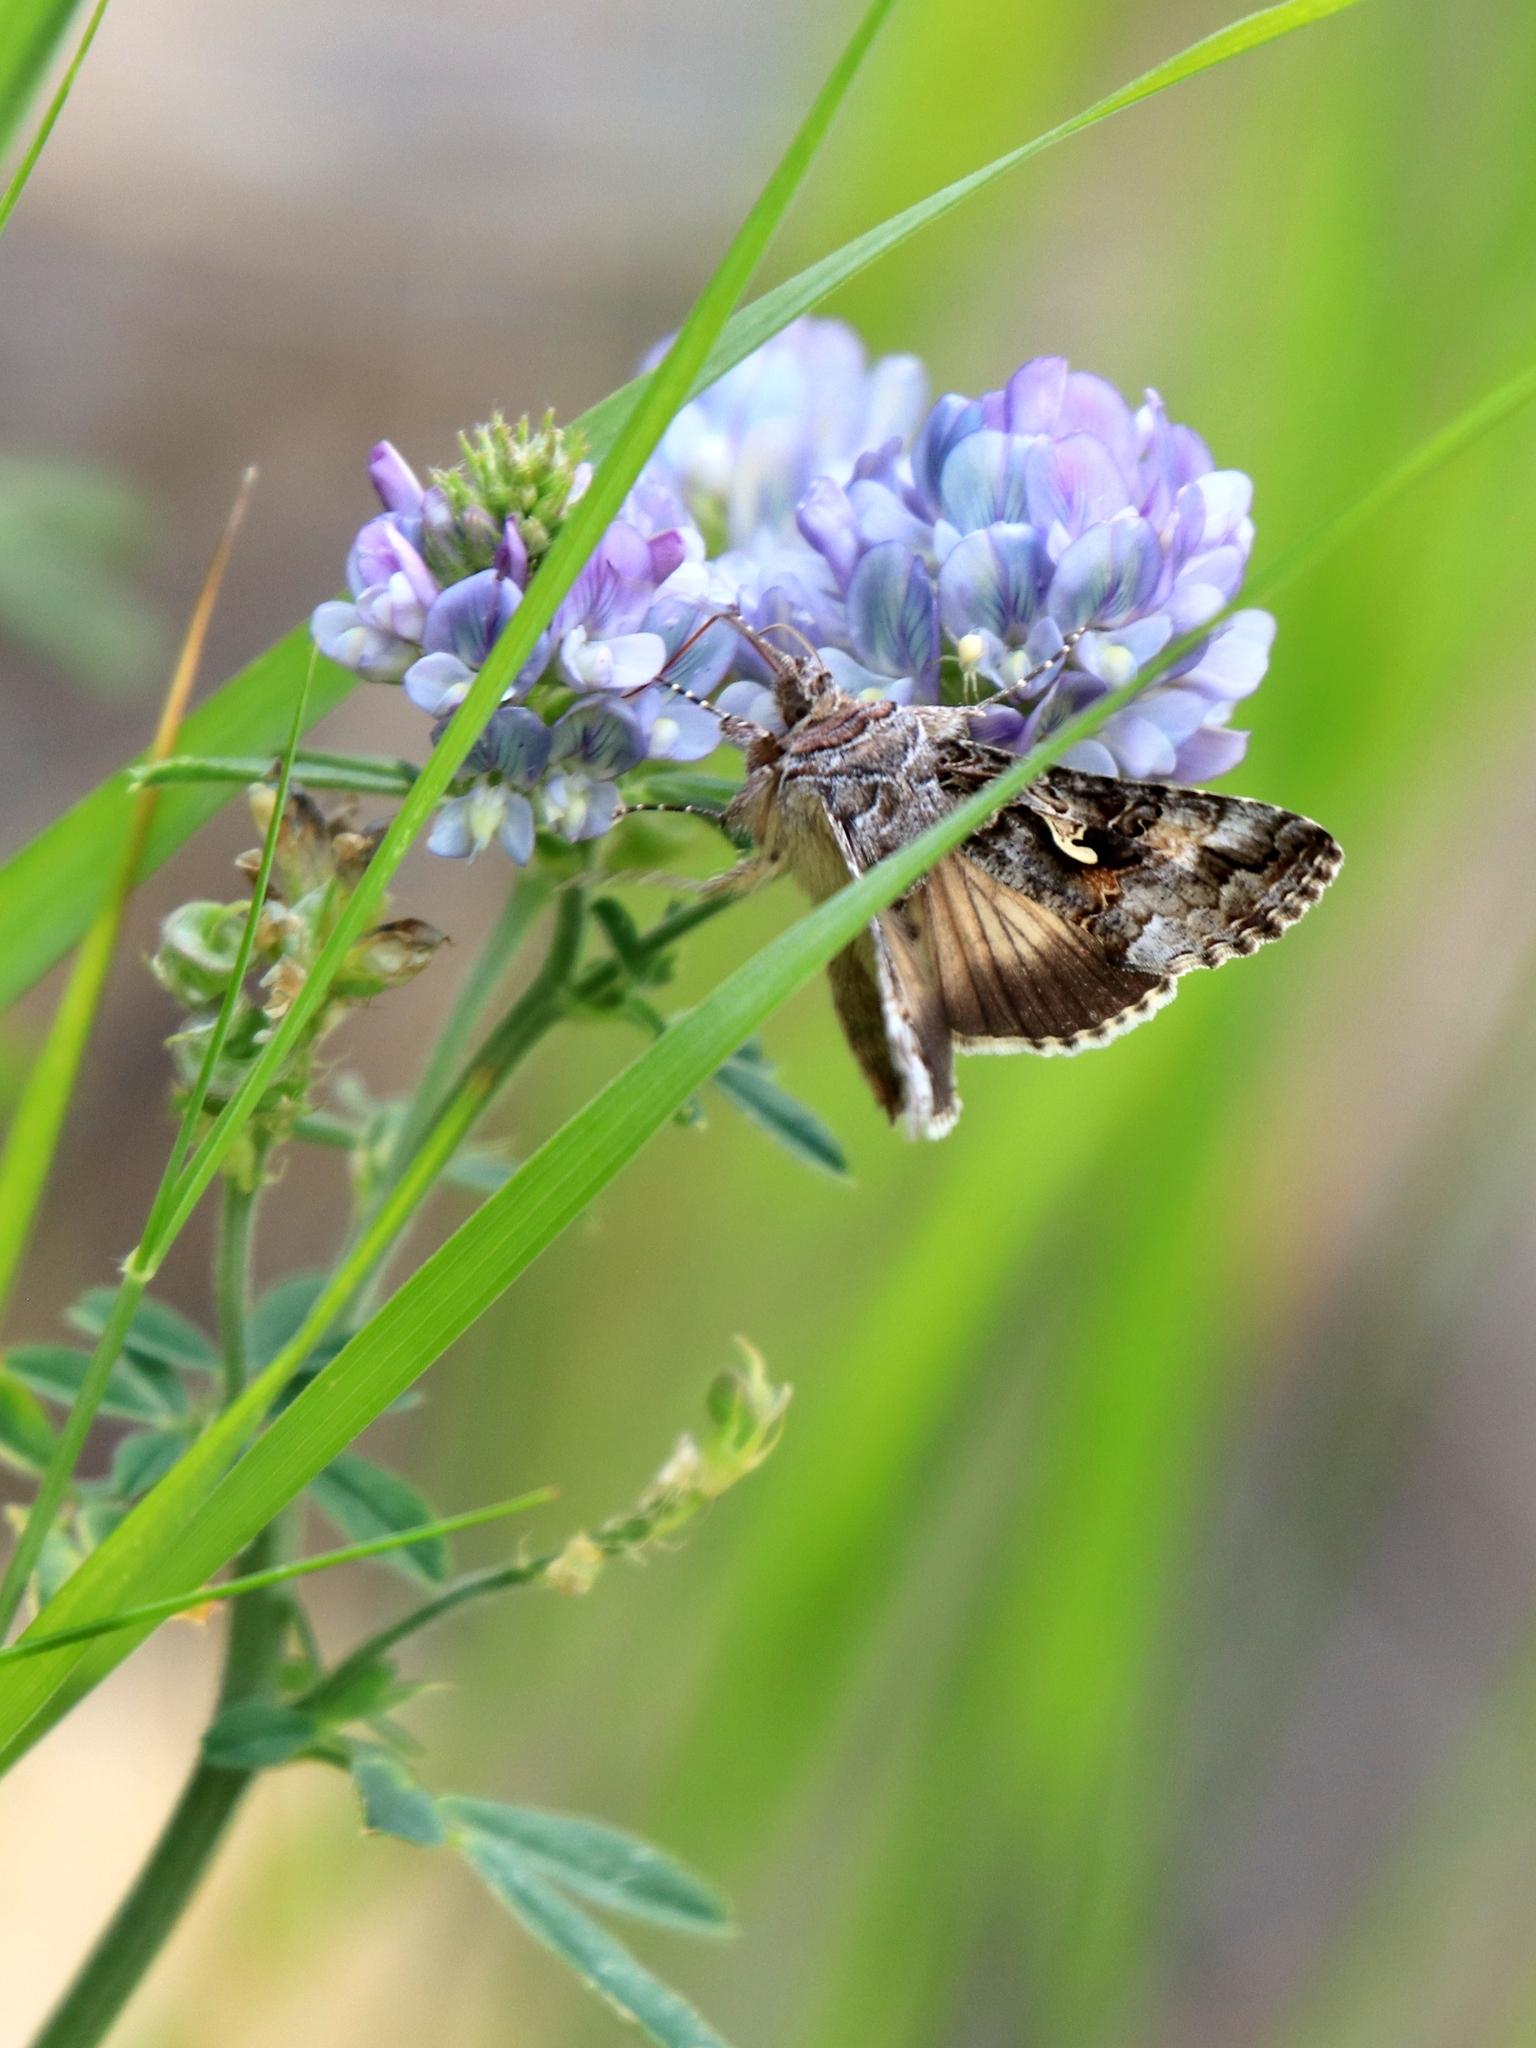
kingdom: Animalia
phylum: Arthropoda
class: Insecta
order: Lepidoptera
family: Noctuidae
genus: Autographa
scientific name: Autographa californica
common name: Alfalfa looper
